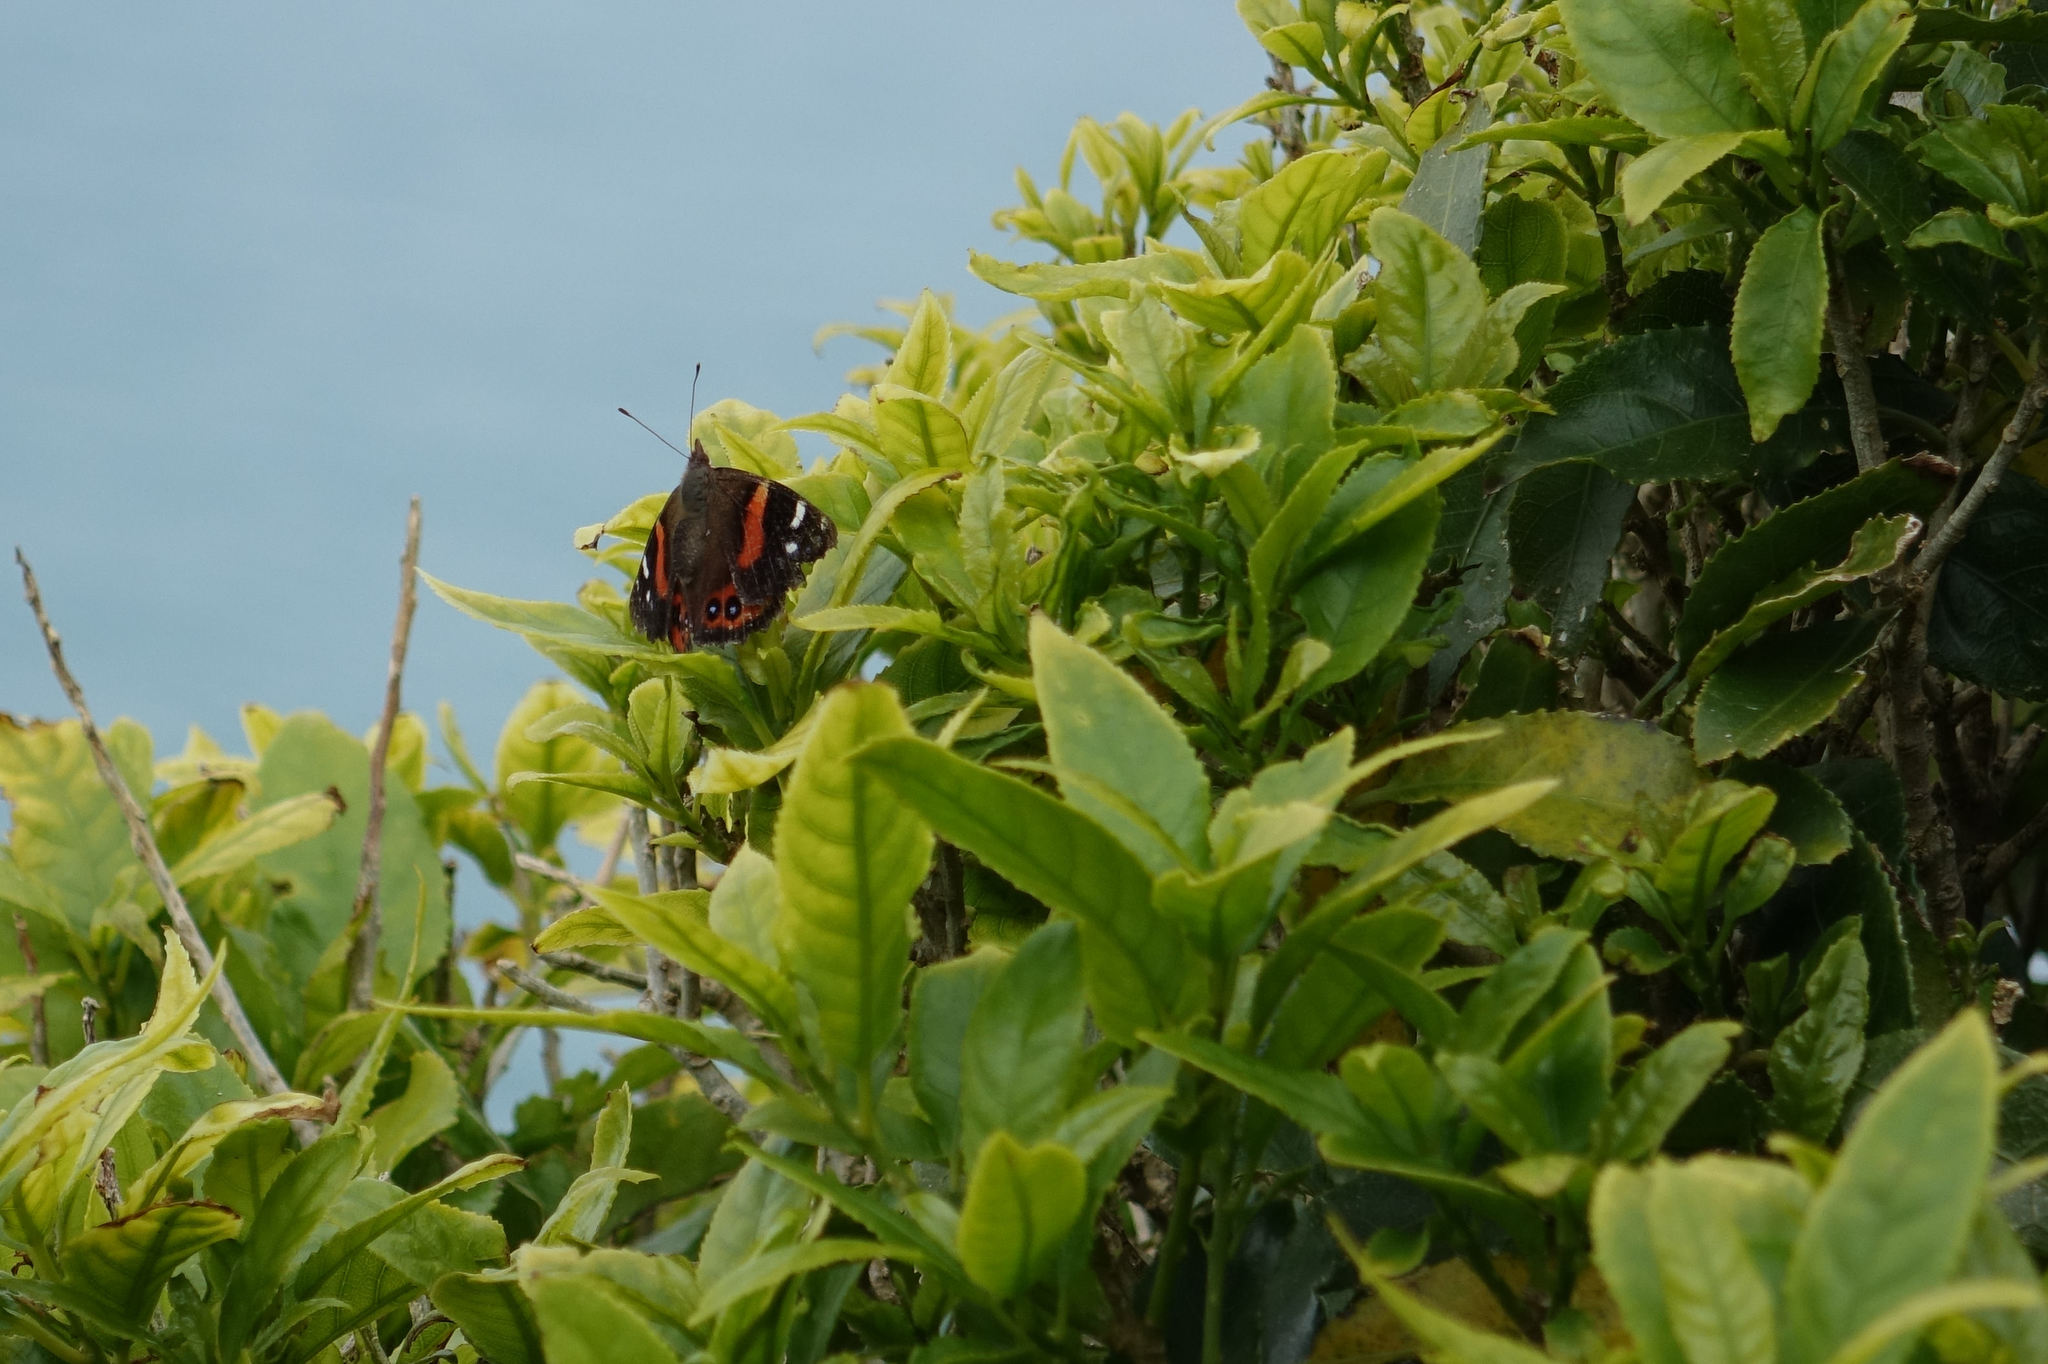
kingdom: Animalia
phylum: Arthropoda
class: Insecta
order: Lepidoptera
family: Nymphalidae
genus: Vanessa
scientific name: Vanessa gonerilla
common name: New zealand red admiral
